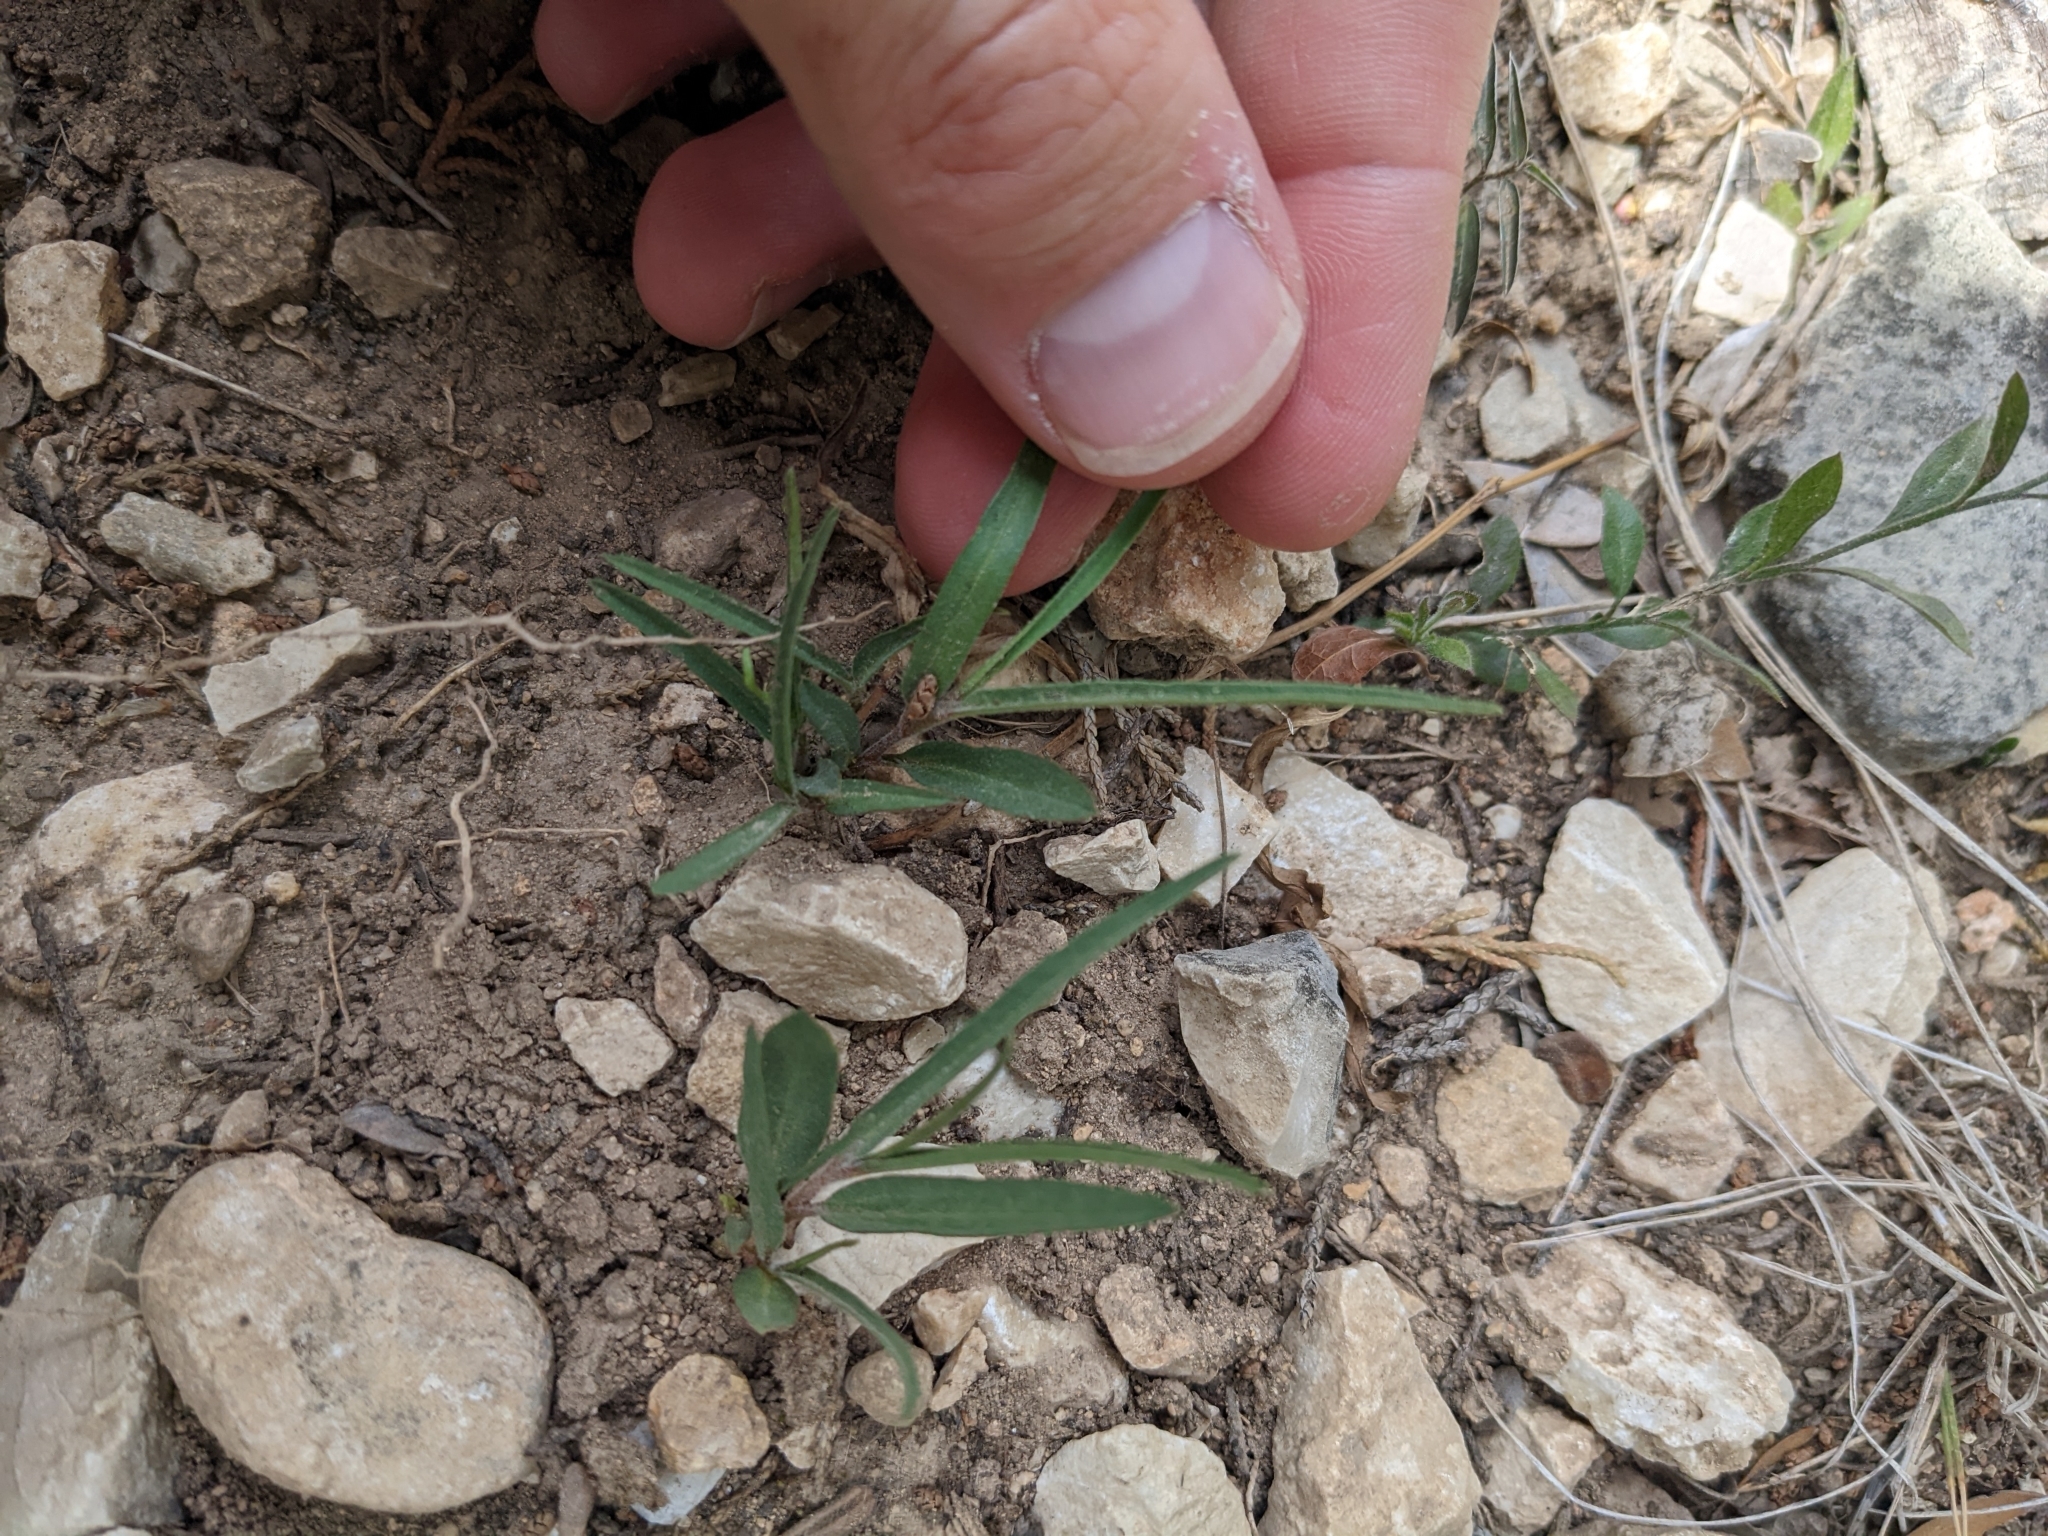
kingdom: Plantae
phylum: Tracheophyta
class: Magnoliopsida
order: Piperales
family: Aristolochiaceae
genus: Aristolochia
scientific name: Aristolochia erecta
